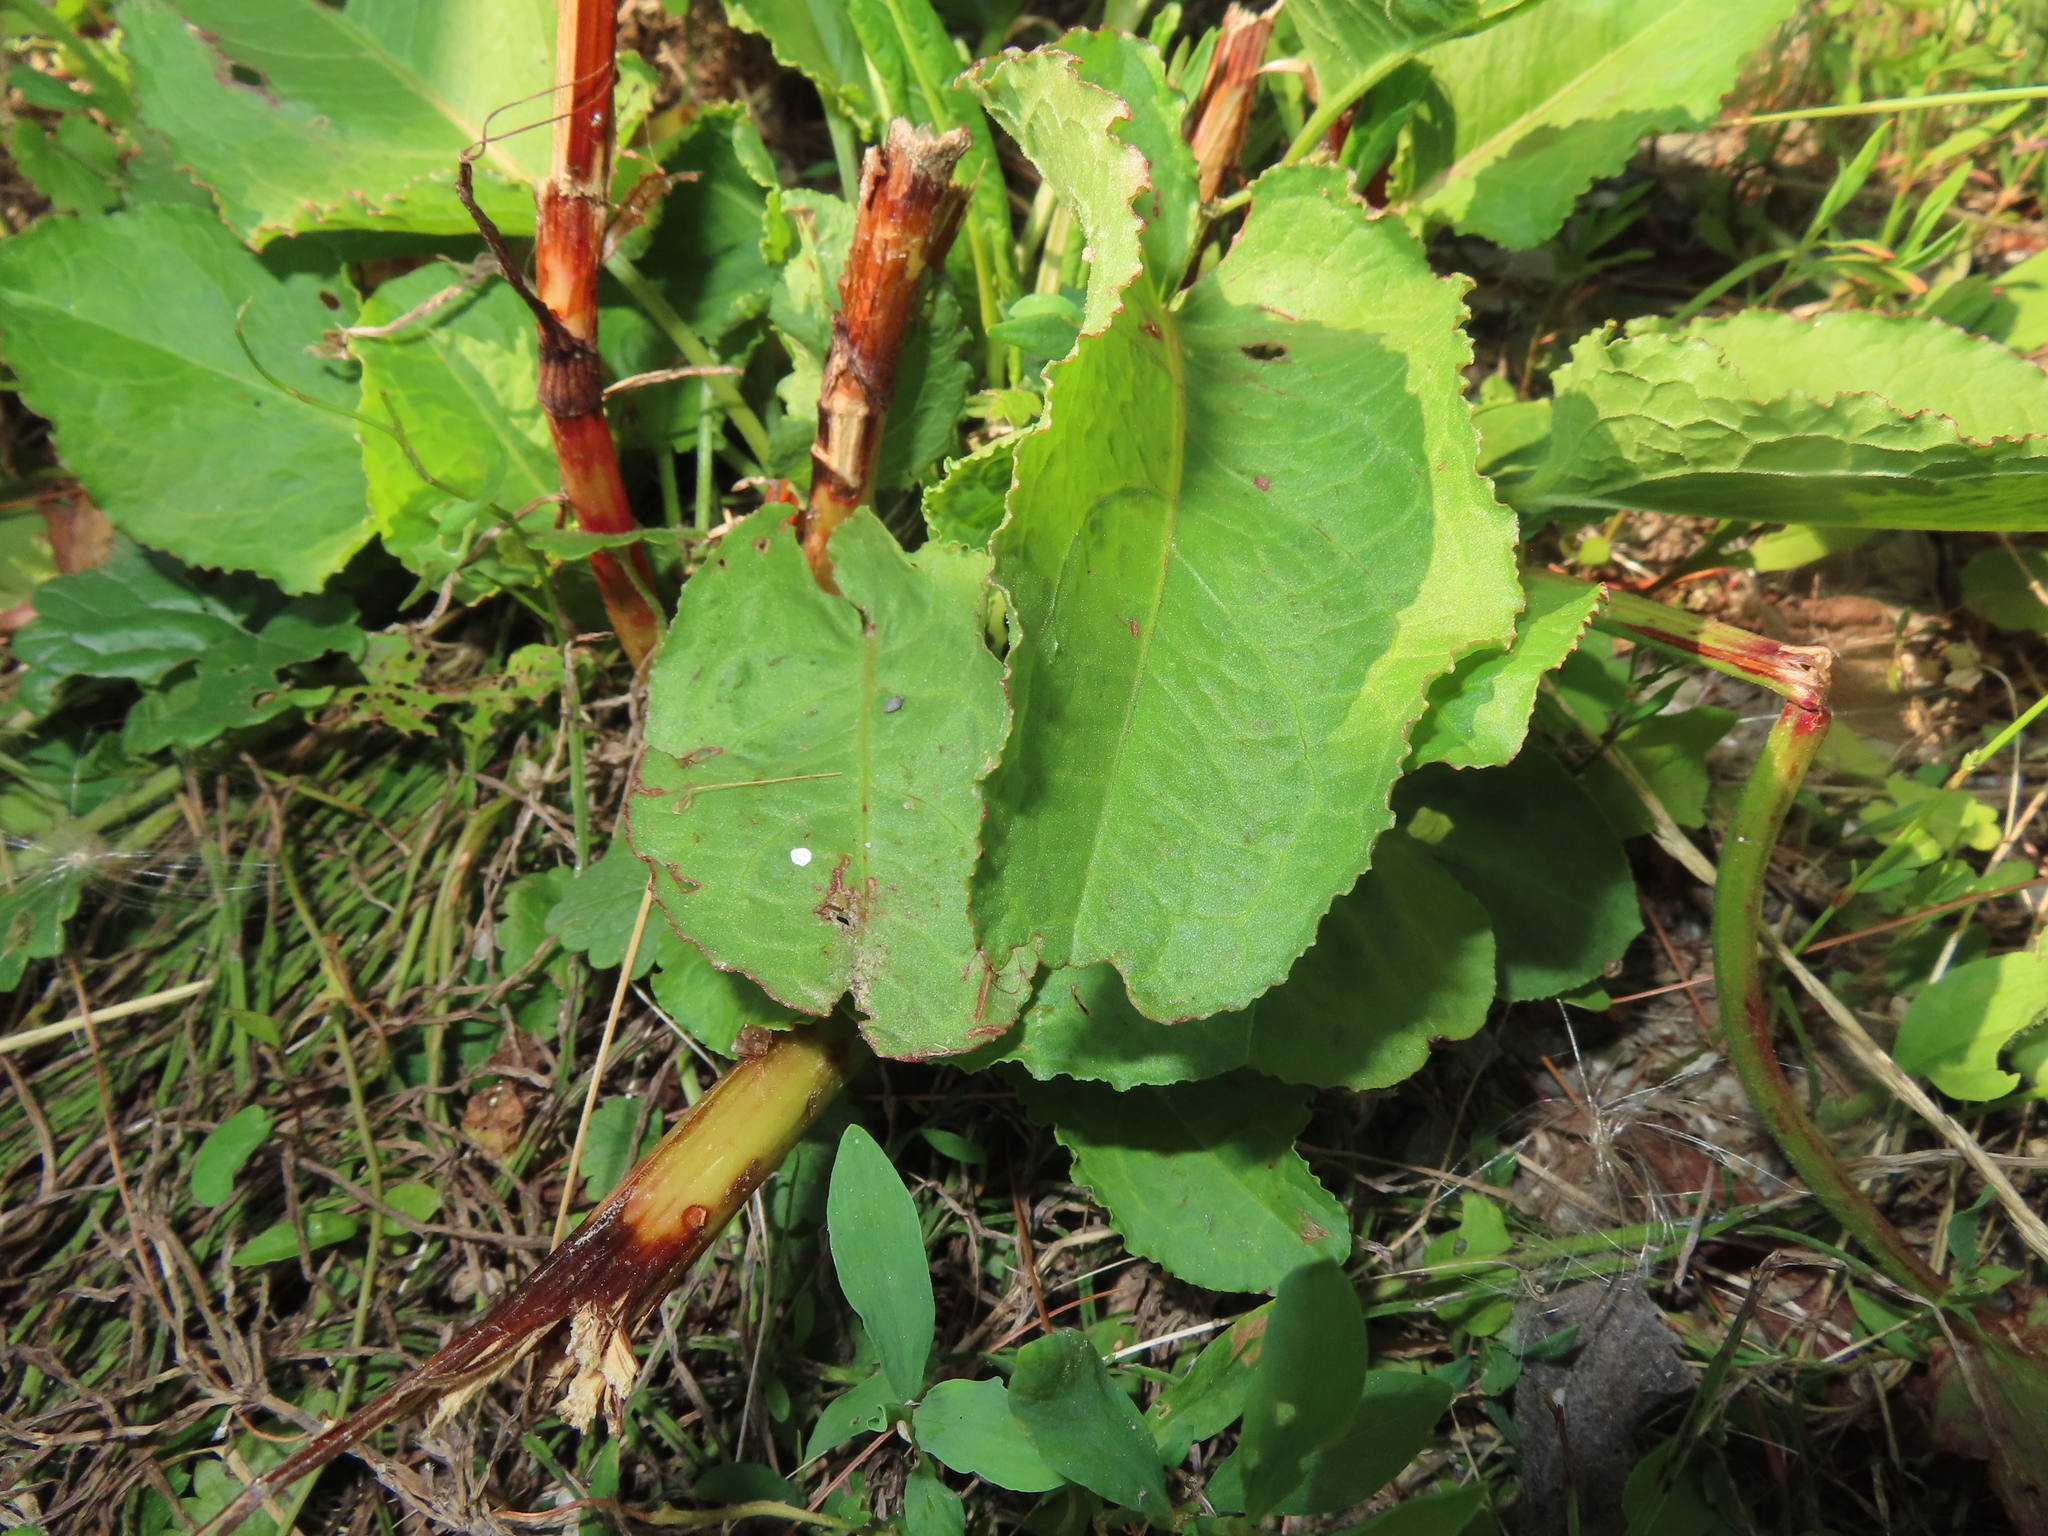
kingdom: Plantae
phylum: Tracheophyta
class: Magnoliopsida
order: Caryophyllales
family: Polygonaceae
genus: Rumex
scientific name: Rumex obtusifolius
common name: Bitter dock
